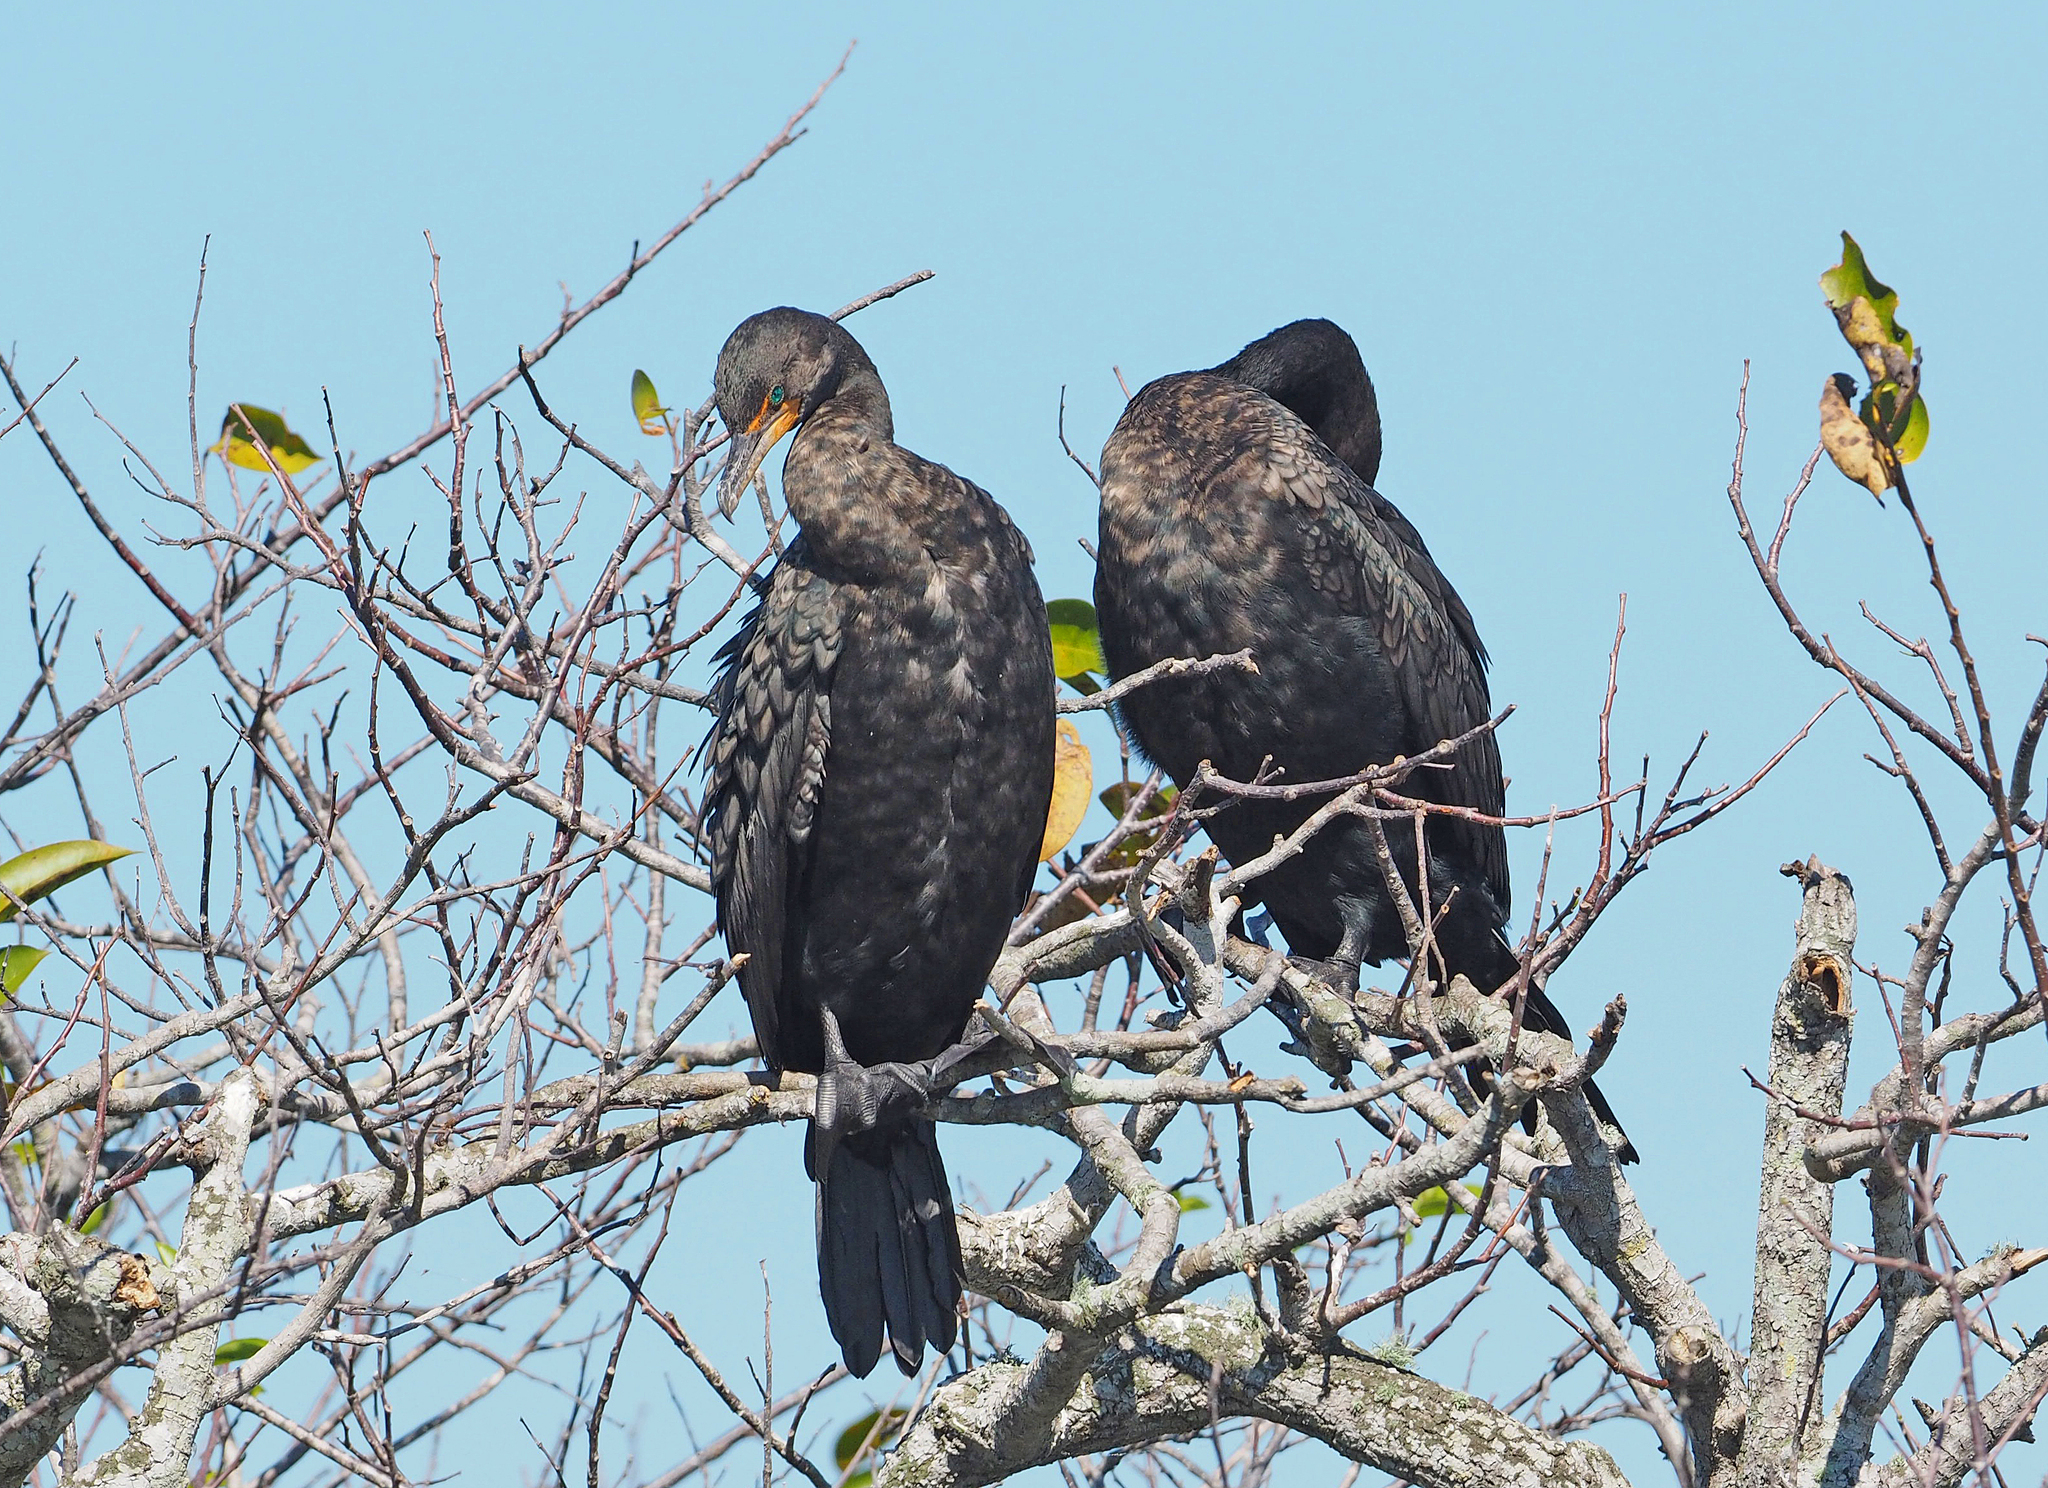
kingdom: Animalia
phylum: Chordata
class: Aves
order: Suliformes
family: Phalacrocoracidae
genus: Phalacrocorax
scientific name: Phalacrocorax auritus
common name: Double-crested cormorant
